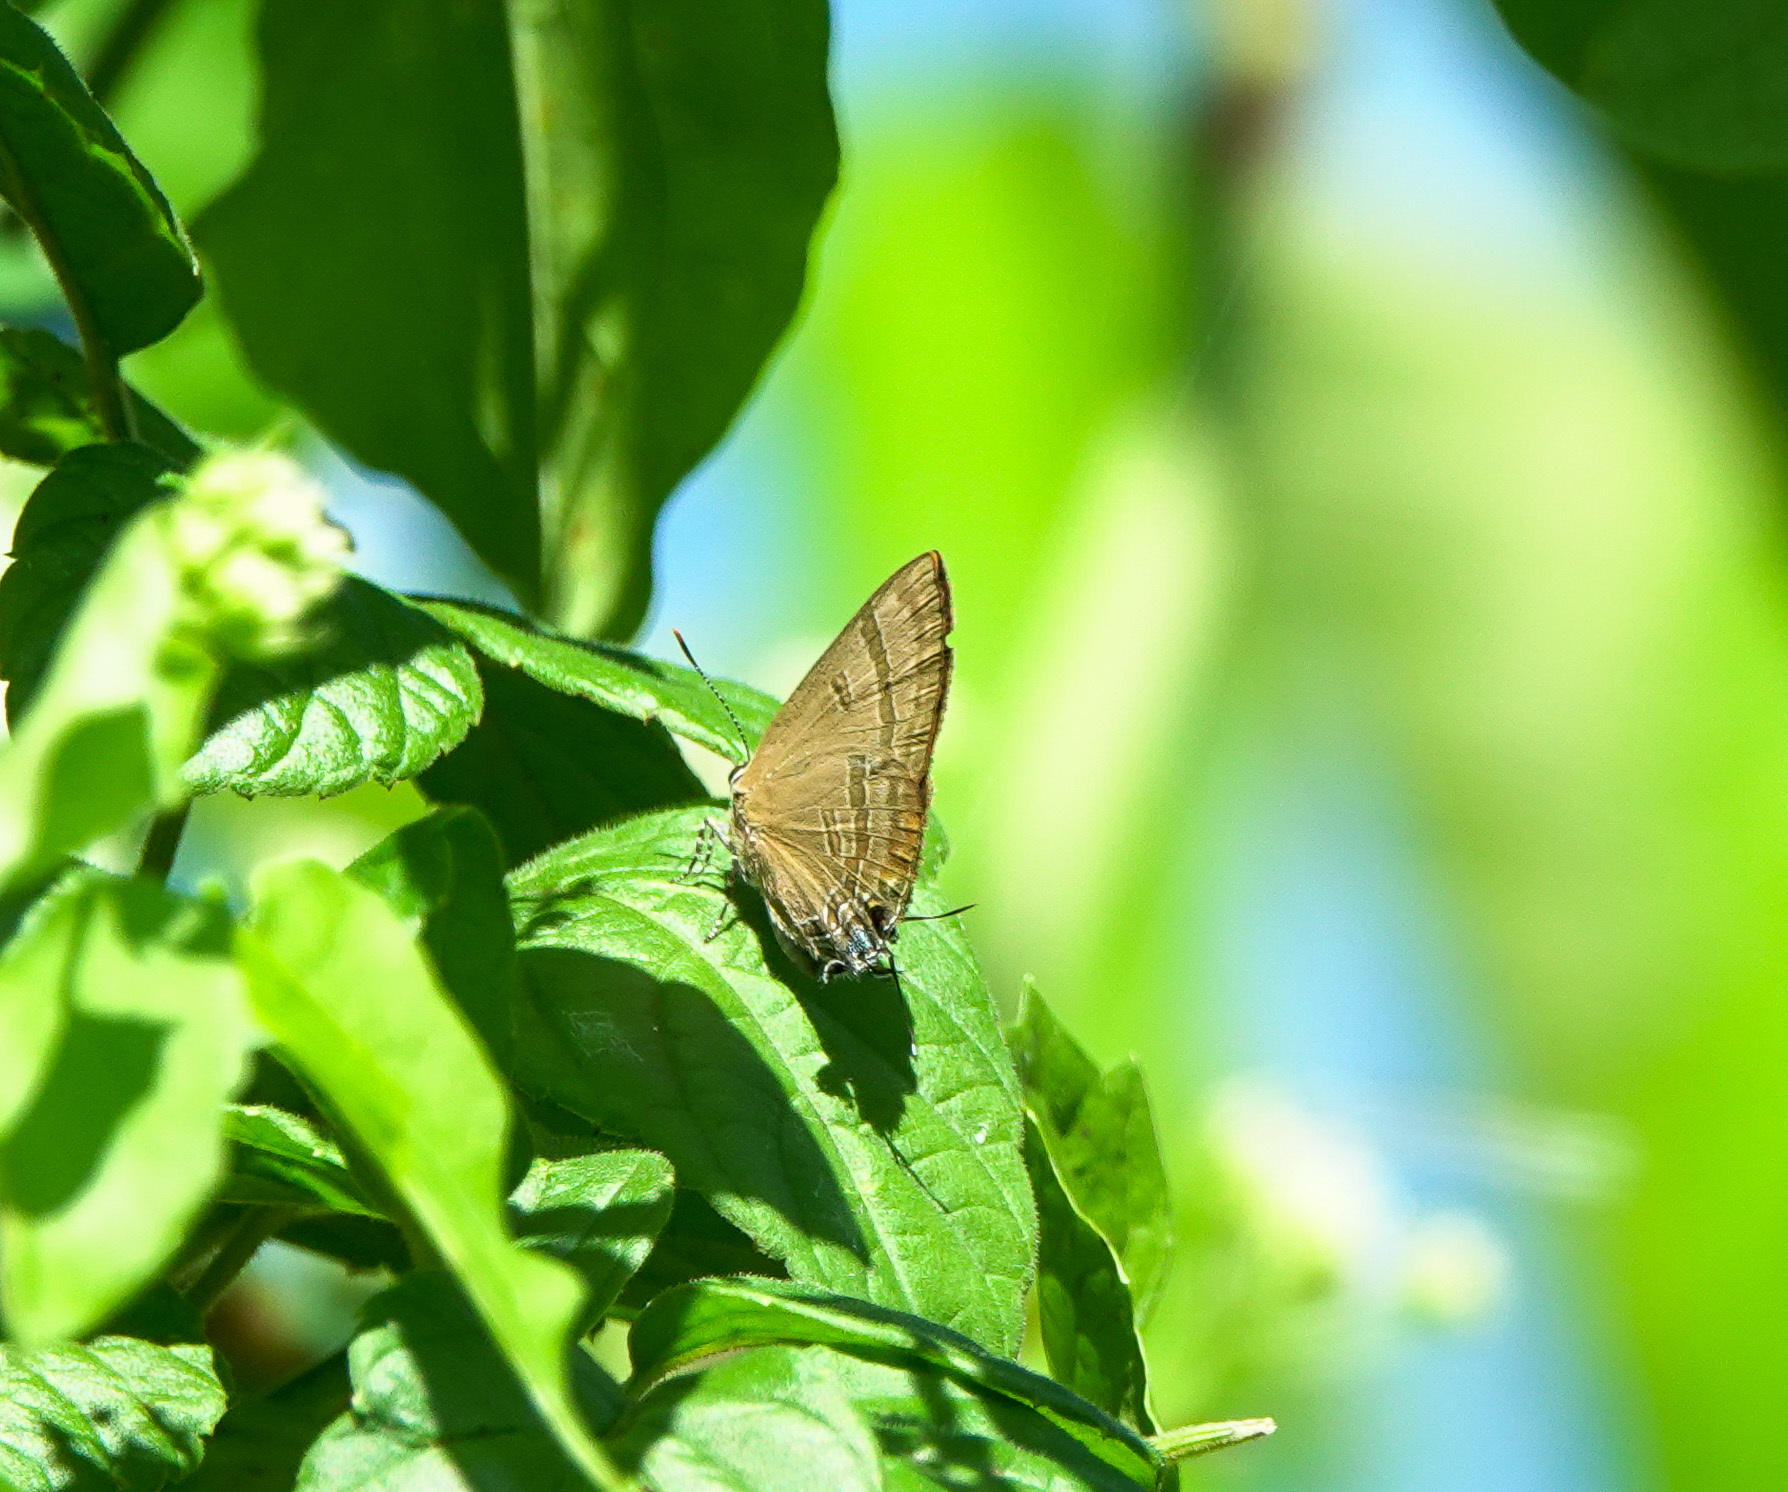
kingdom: Animalia
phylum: Arthropoda
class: Insecta
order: Lepidoptera
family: Lycaenidae
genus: Rapala
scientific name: Rapala varuna
